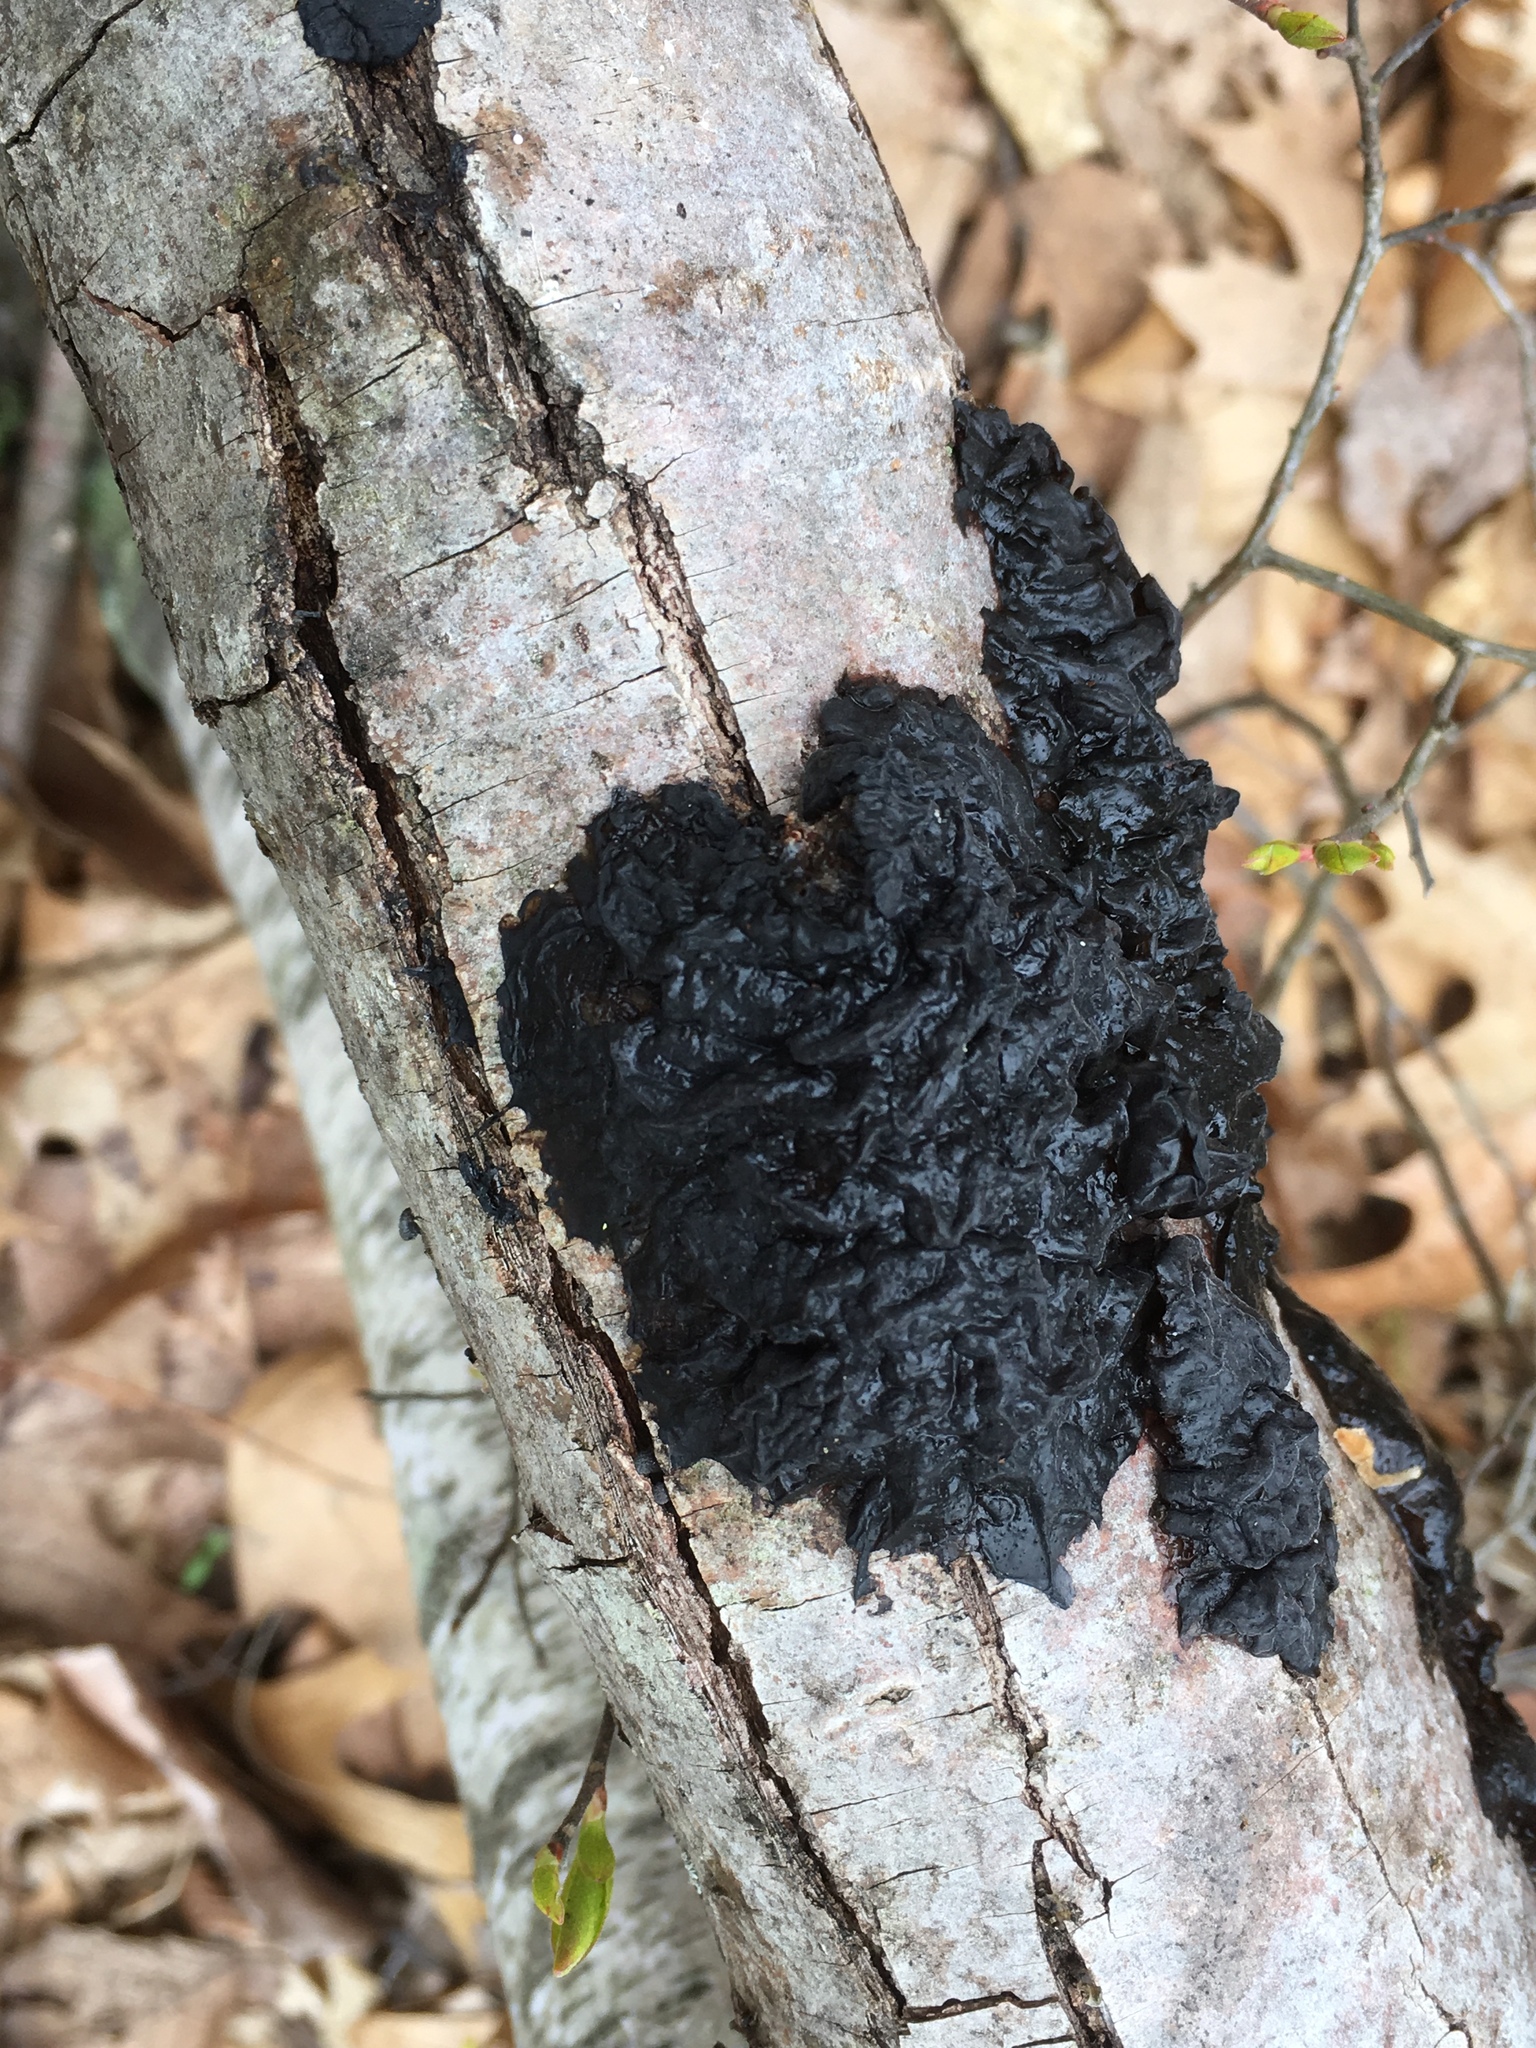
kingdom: Fungi
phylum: Basidiomycota
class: Agaricomycetes
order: Auriculariales
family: Auriculariaceae
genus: Exidia
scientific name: Exidia glandulosa
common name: Witches' butter
